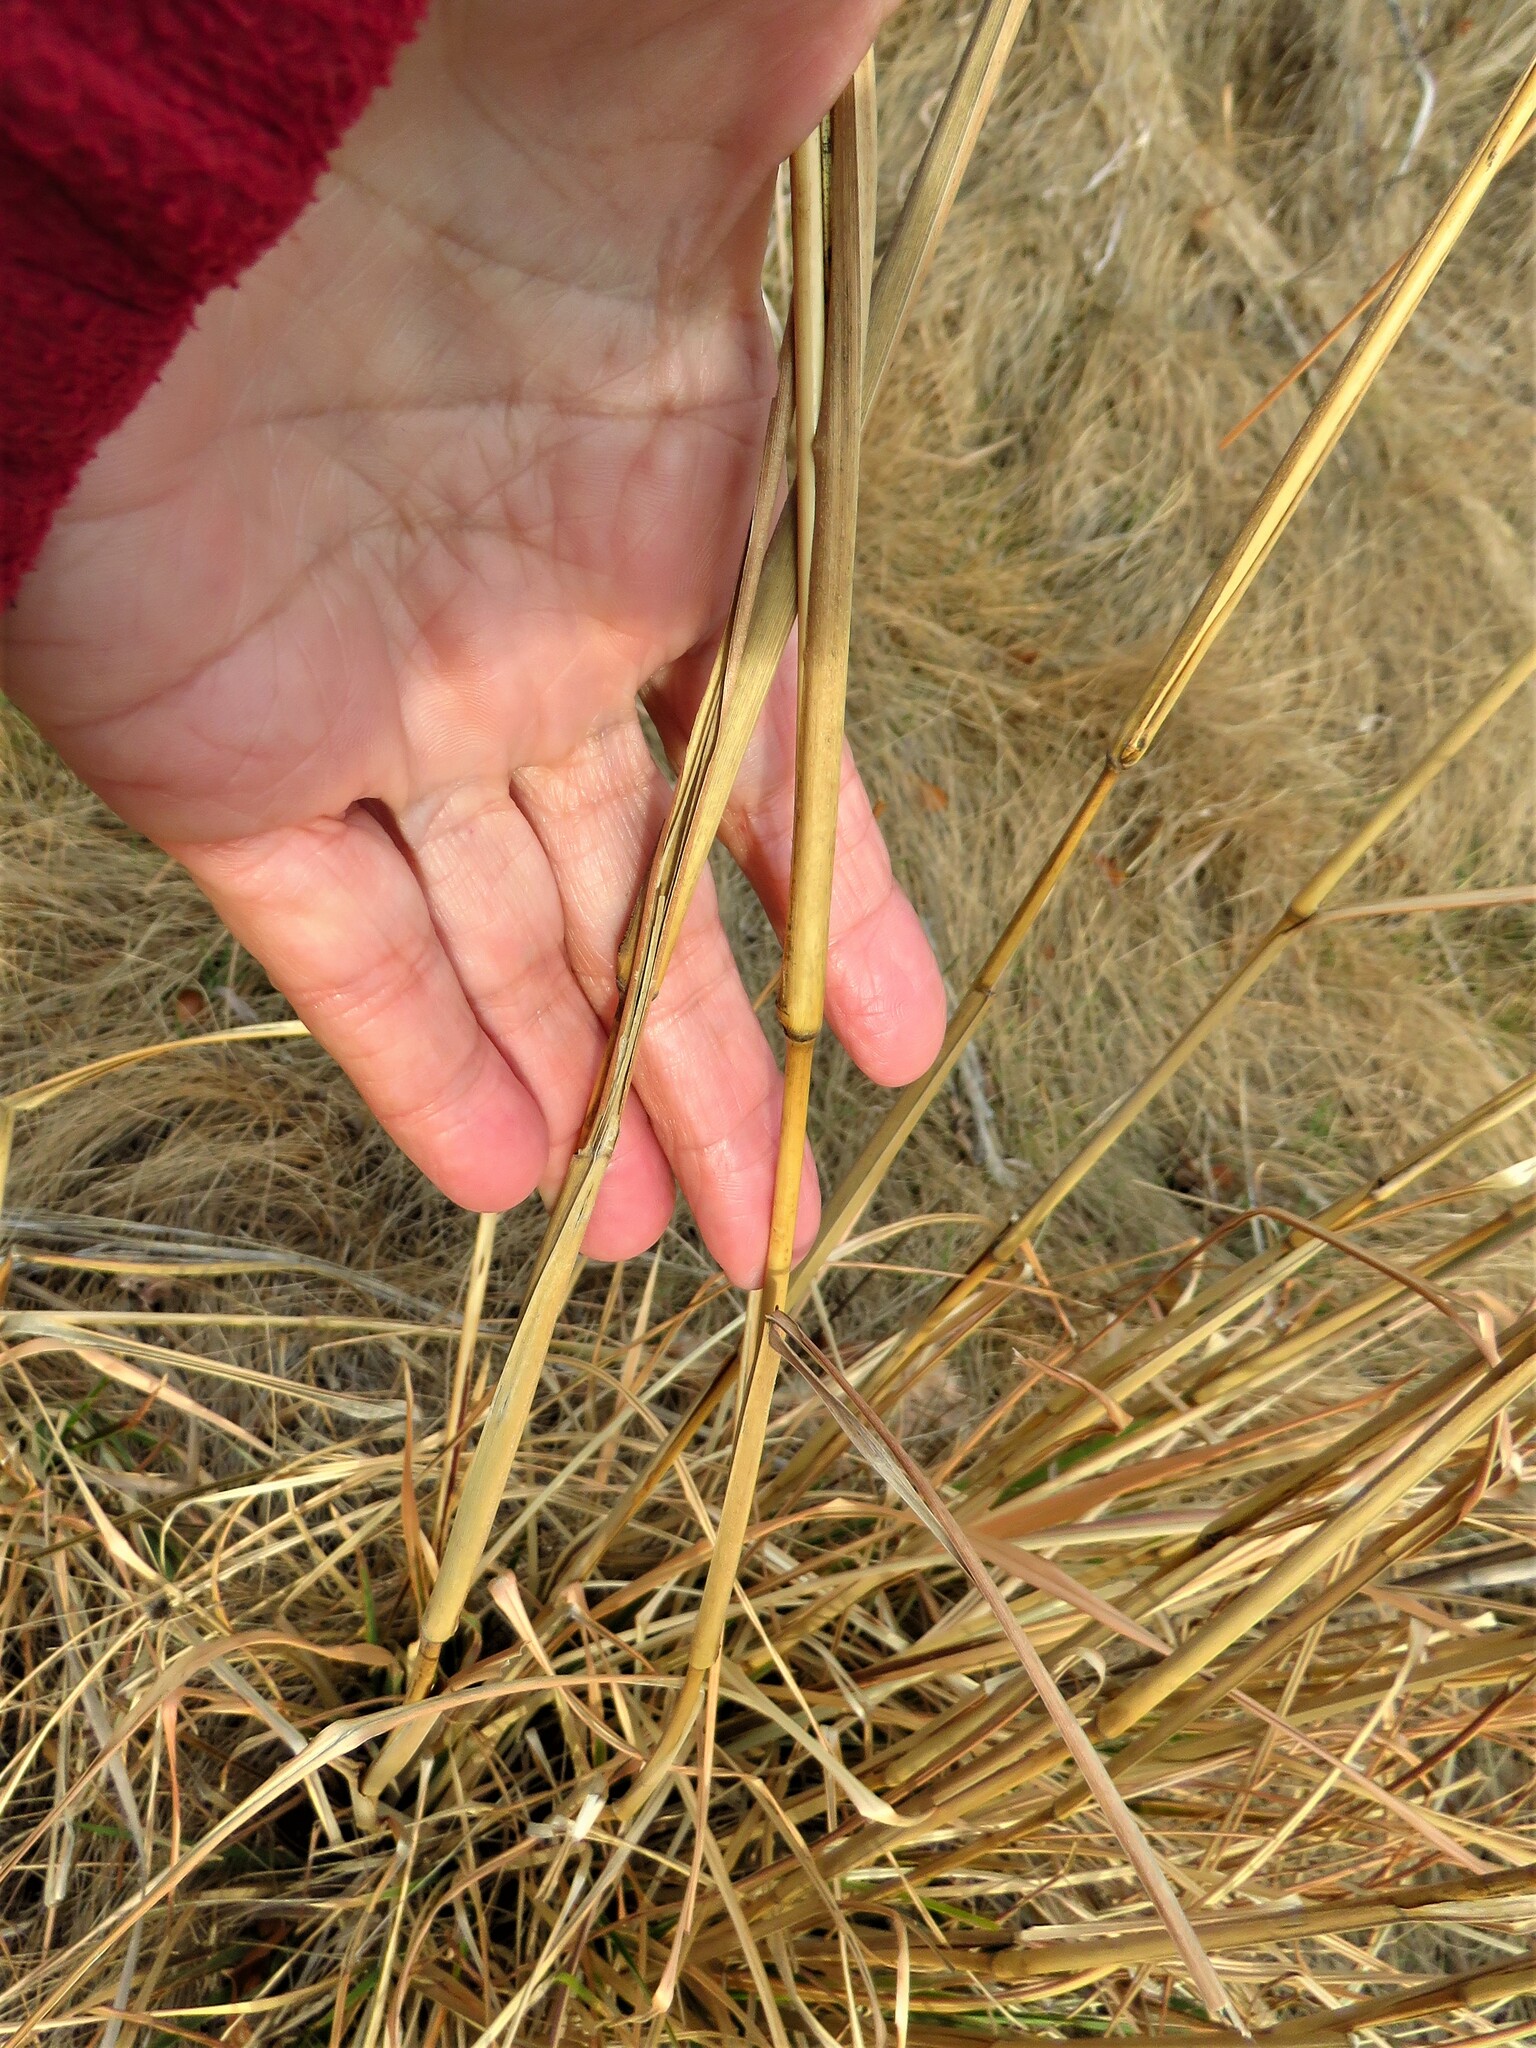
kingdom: Plantae
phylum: Tracheophyta
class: Liliopsida
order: Poales
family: Poaceae
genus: Andropogon
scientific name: Andropogon tenuispatheus
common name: Bushy bluestem
